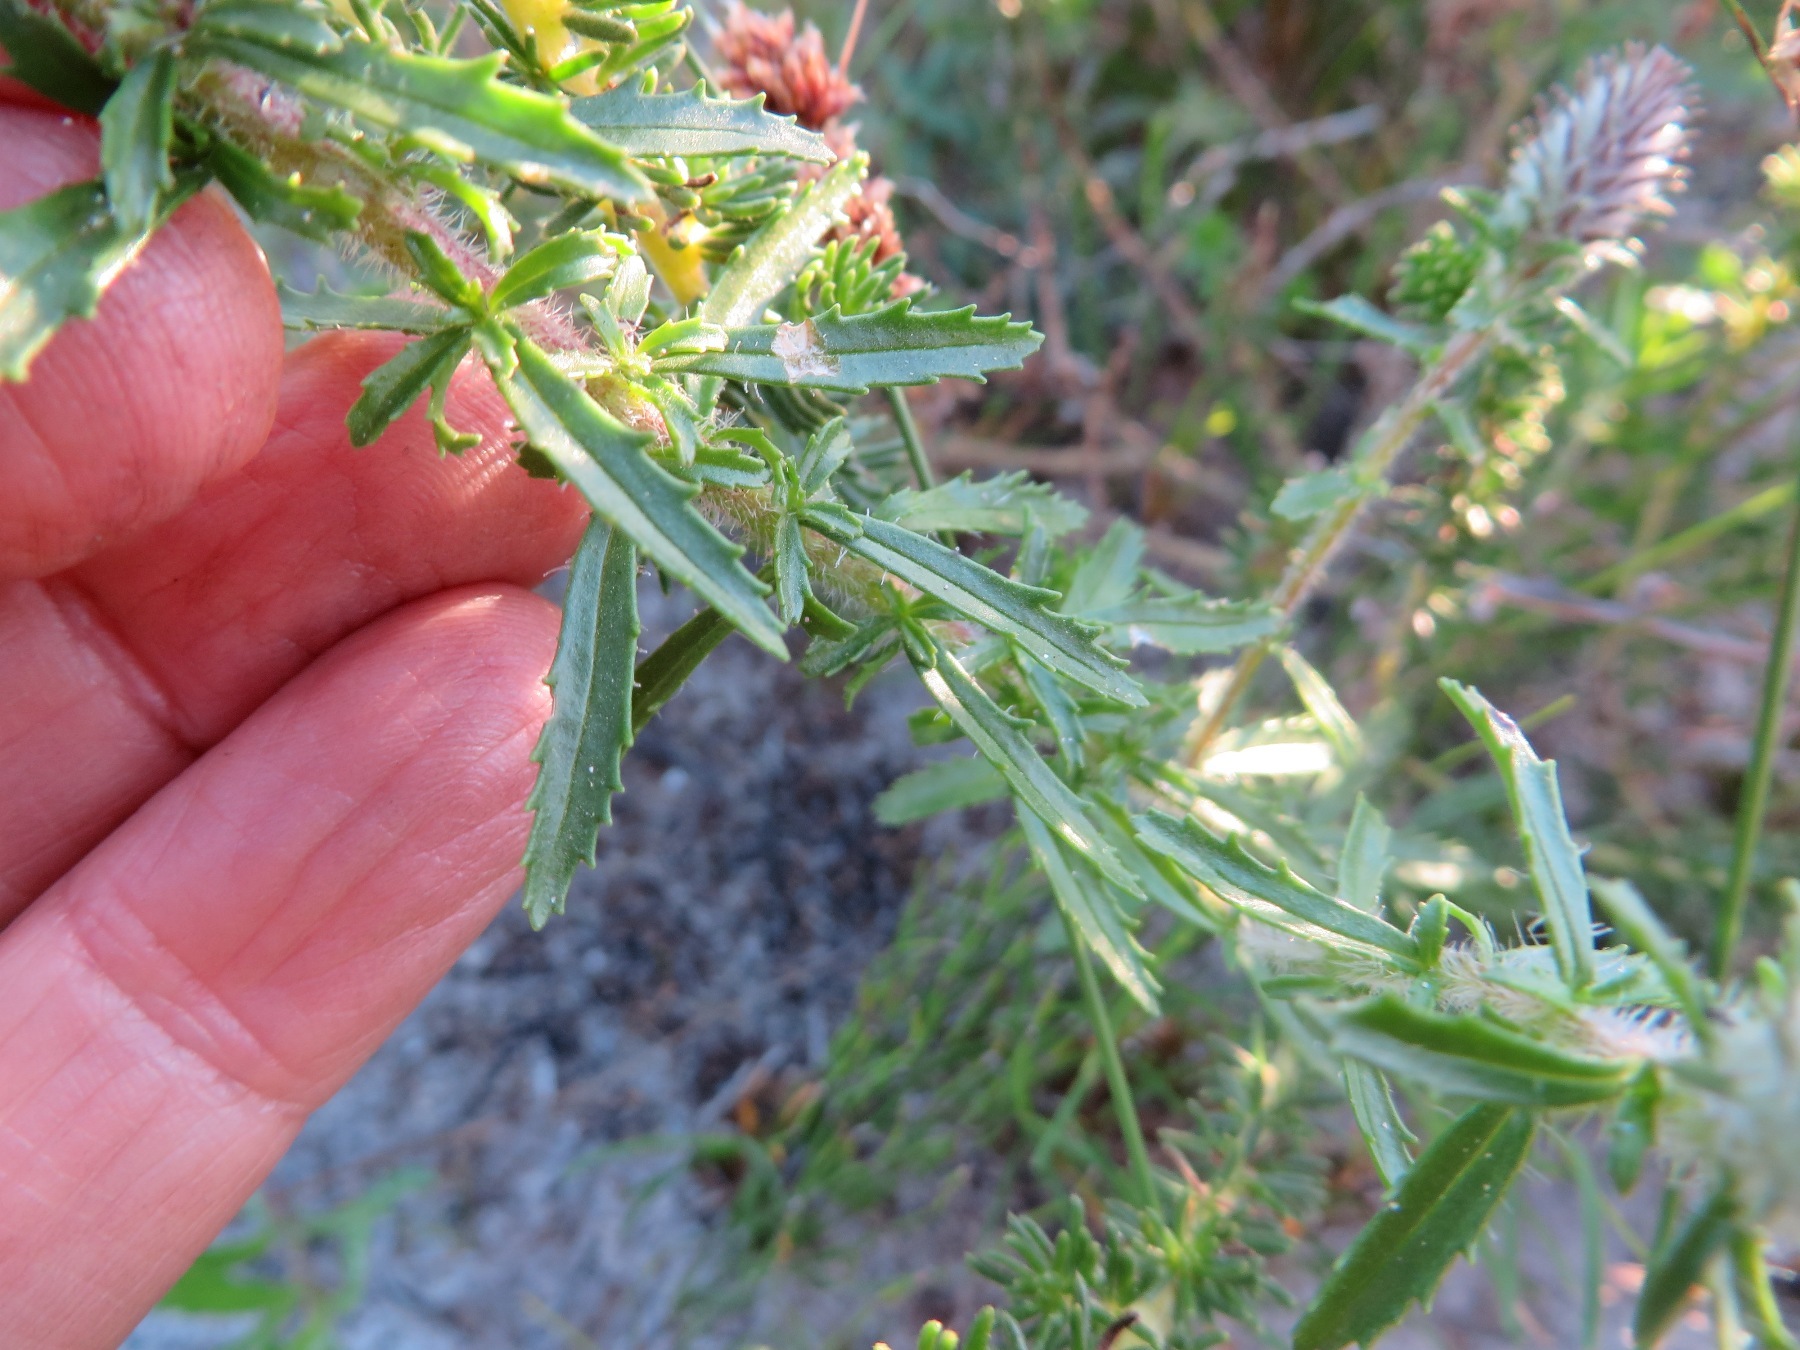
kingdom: Plantae
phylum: Tracheophyta
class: Magnoliopsida
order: Lamiales
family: Scrophulariaceae
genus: Dischisma
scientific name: Dischisma ciliatum
